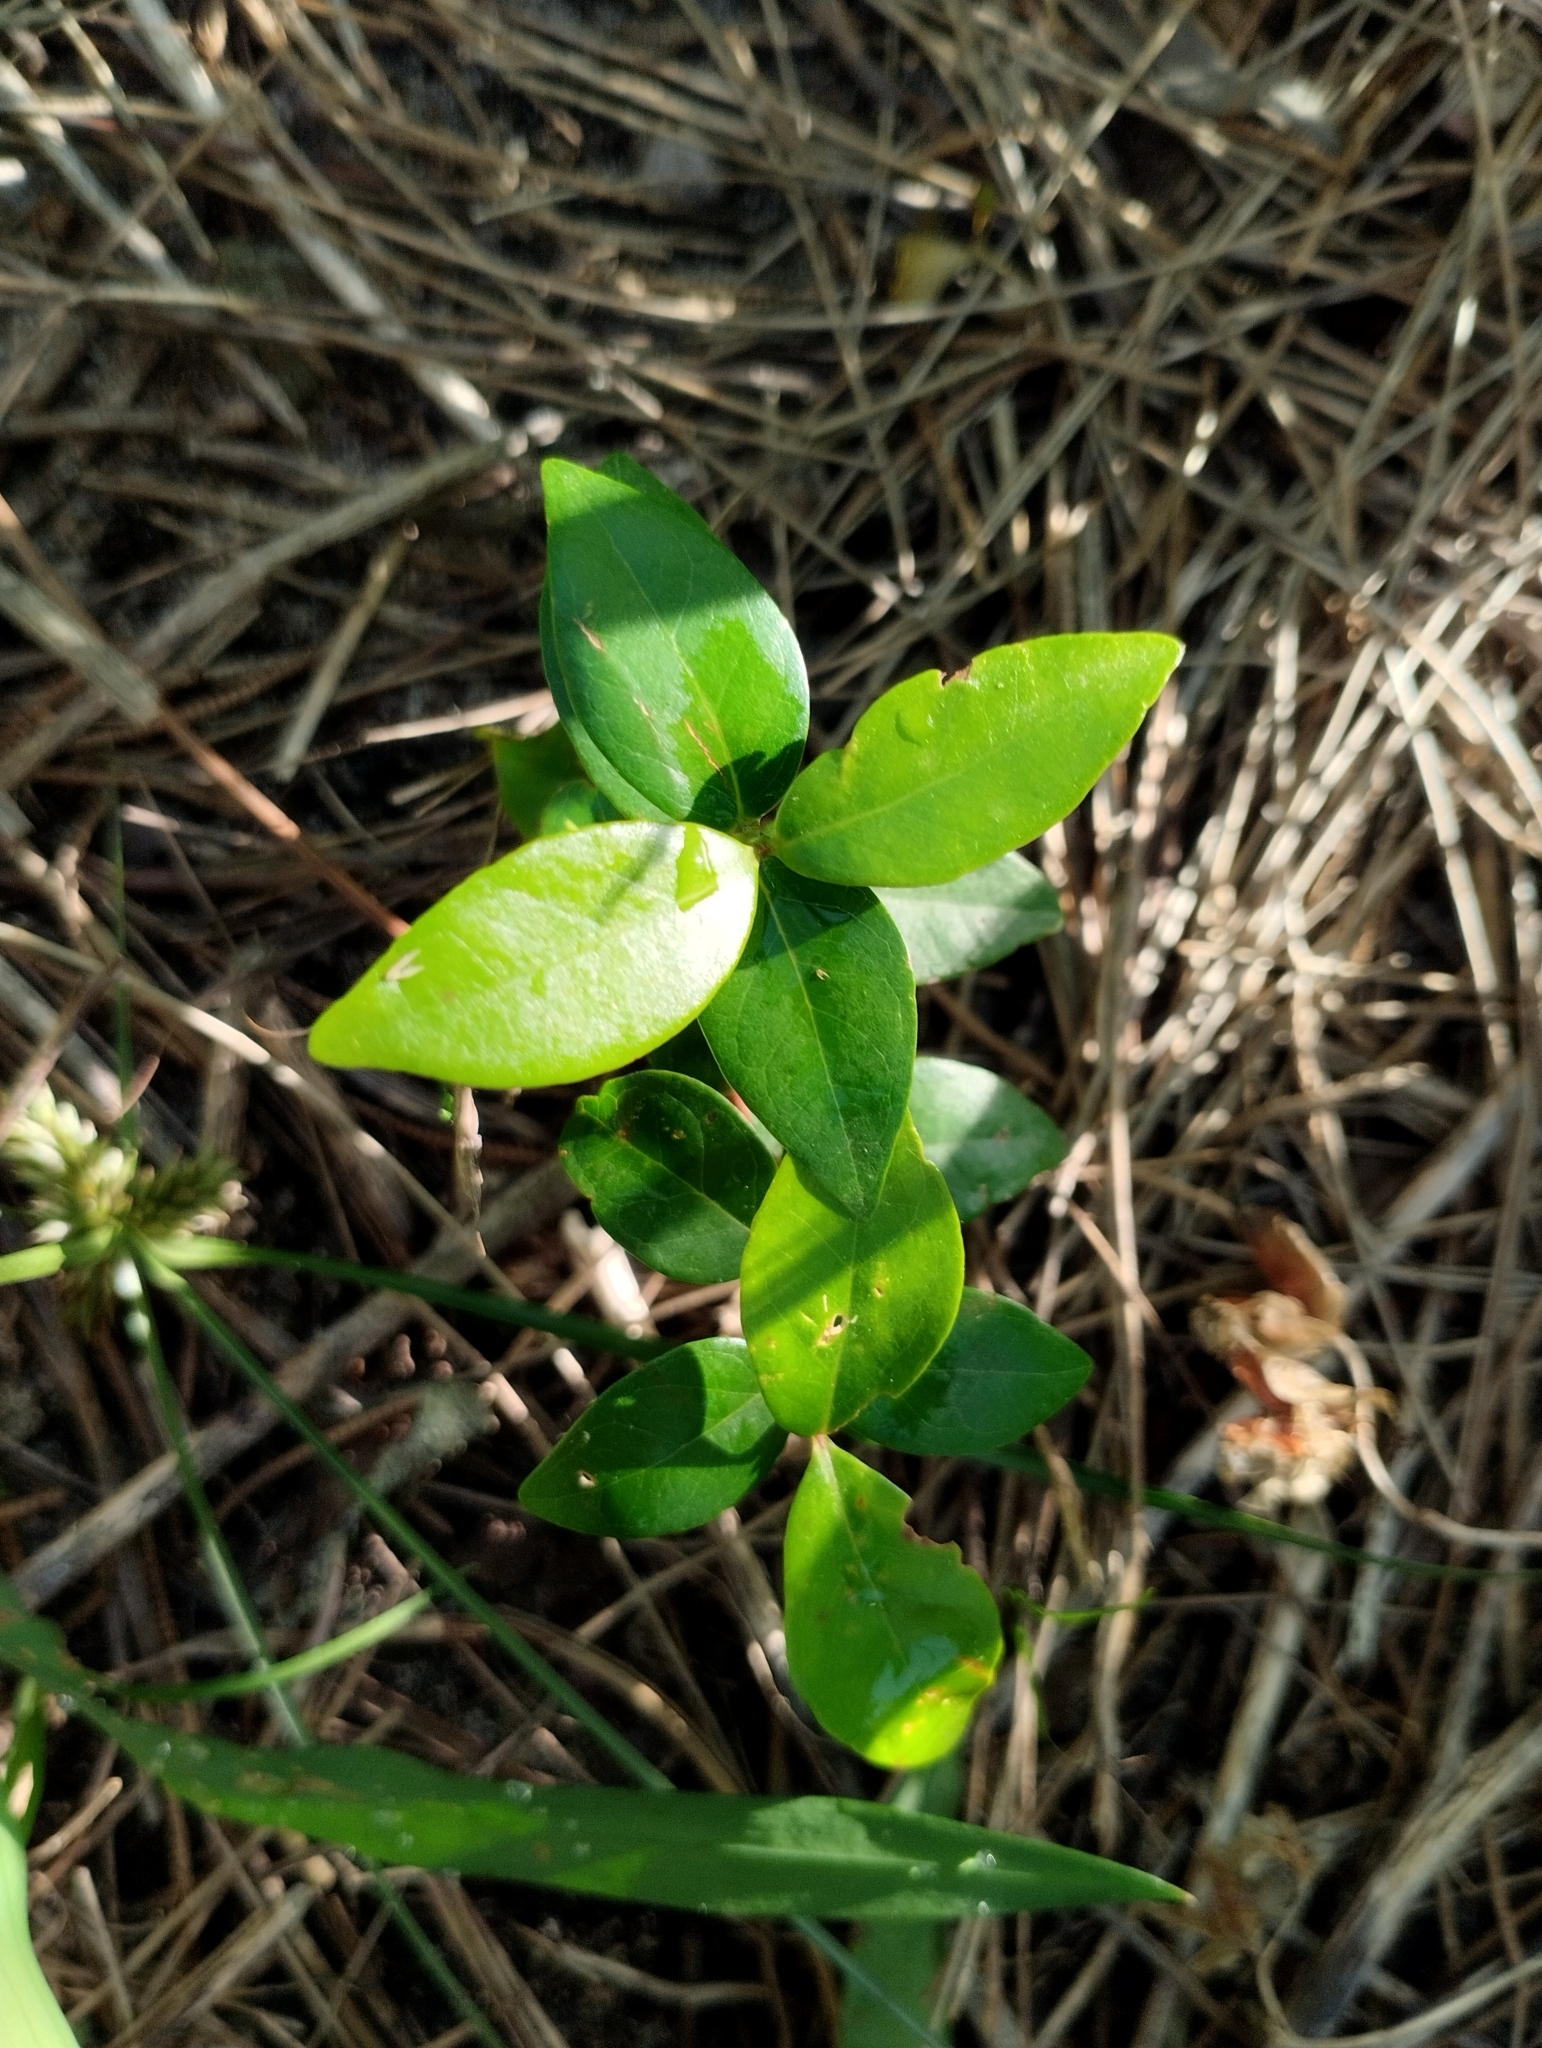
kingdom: Plantae
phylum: Tracheophyta
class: Magnoliopsida
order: Myrtales
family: Myrtaceae
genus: Eugenia
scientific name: Eugenia uniflora
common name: Surinam cherry
